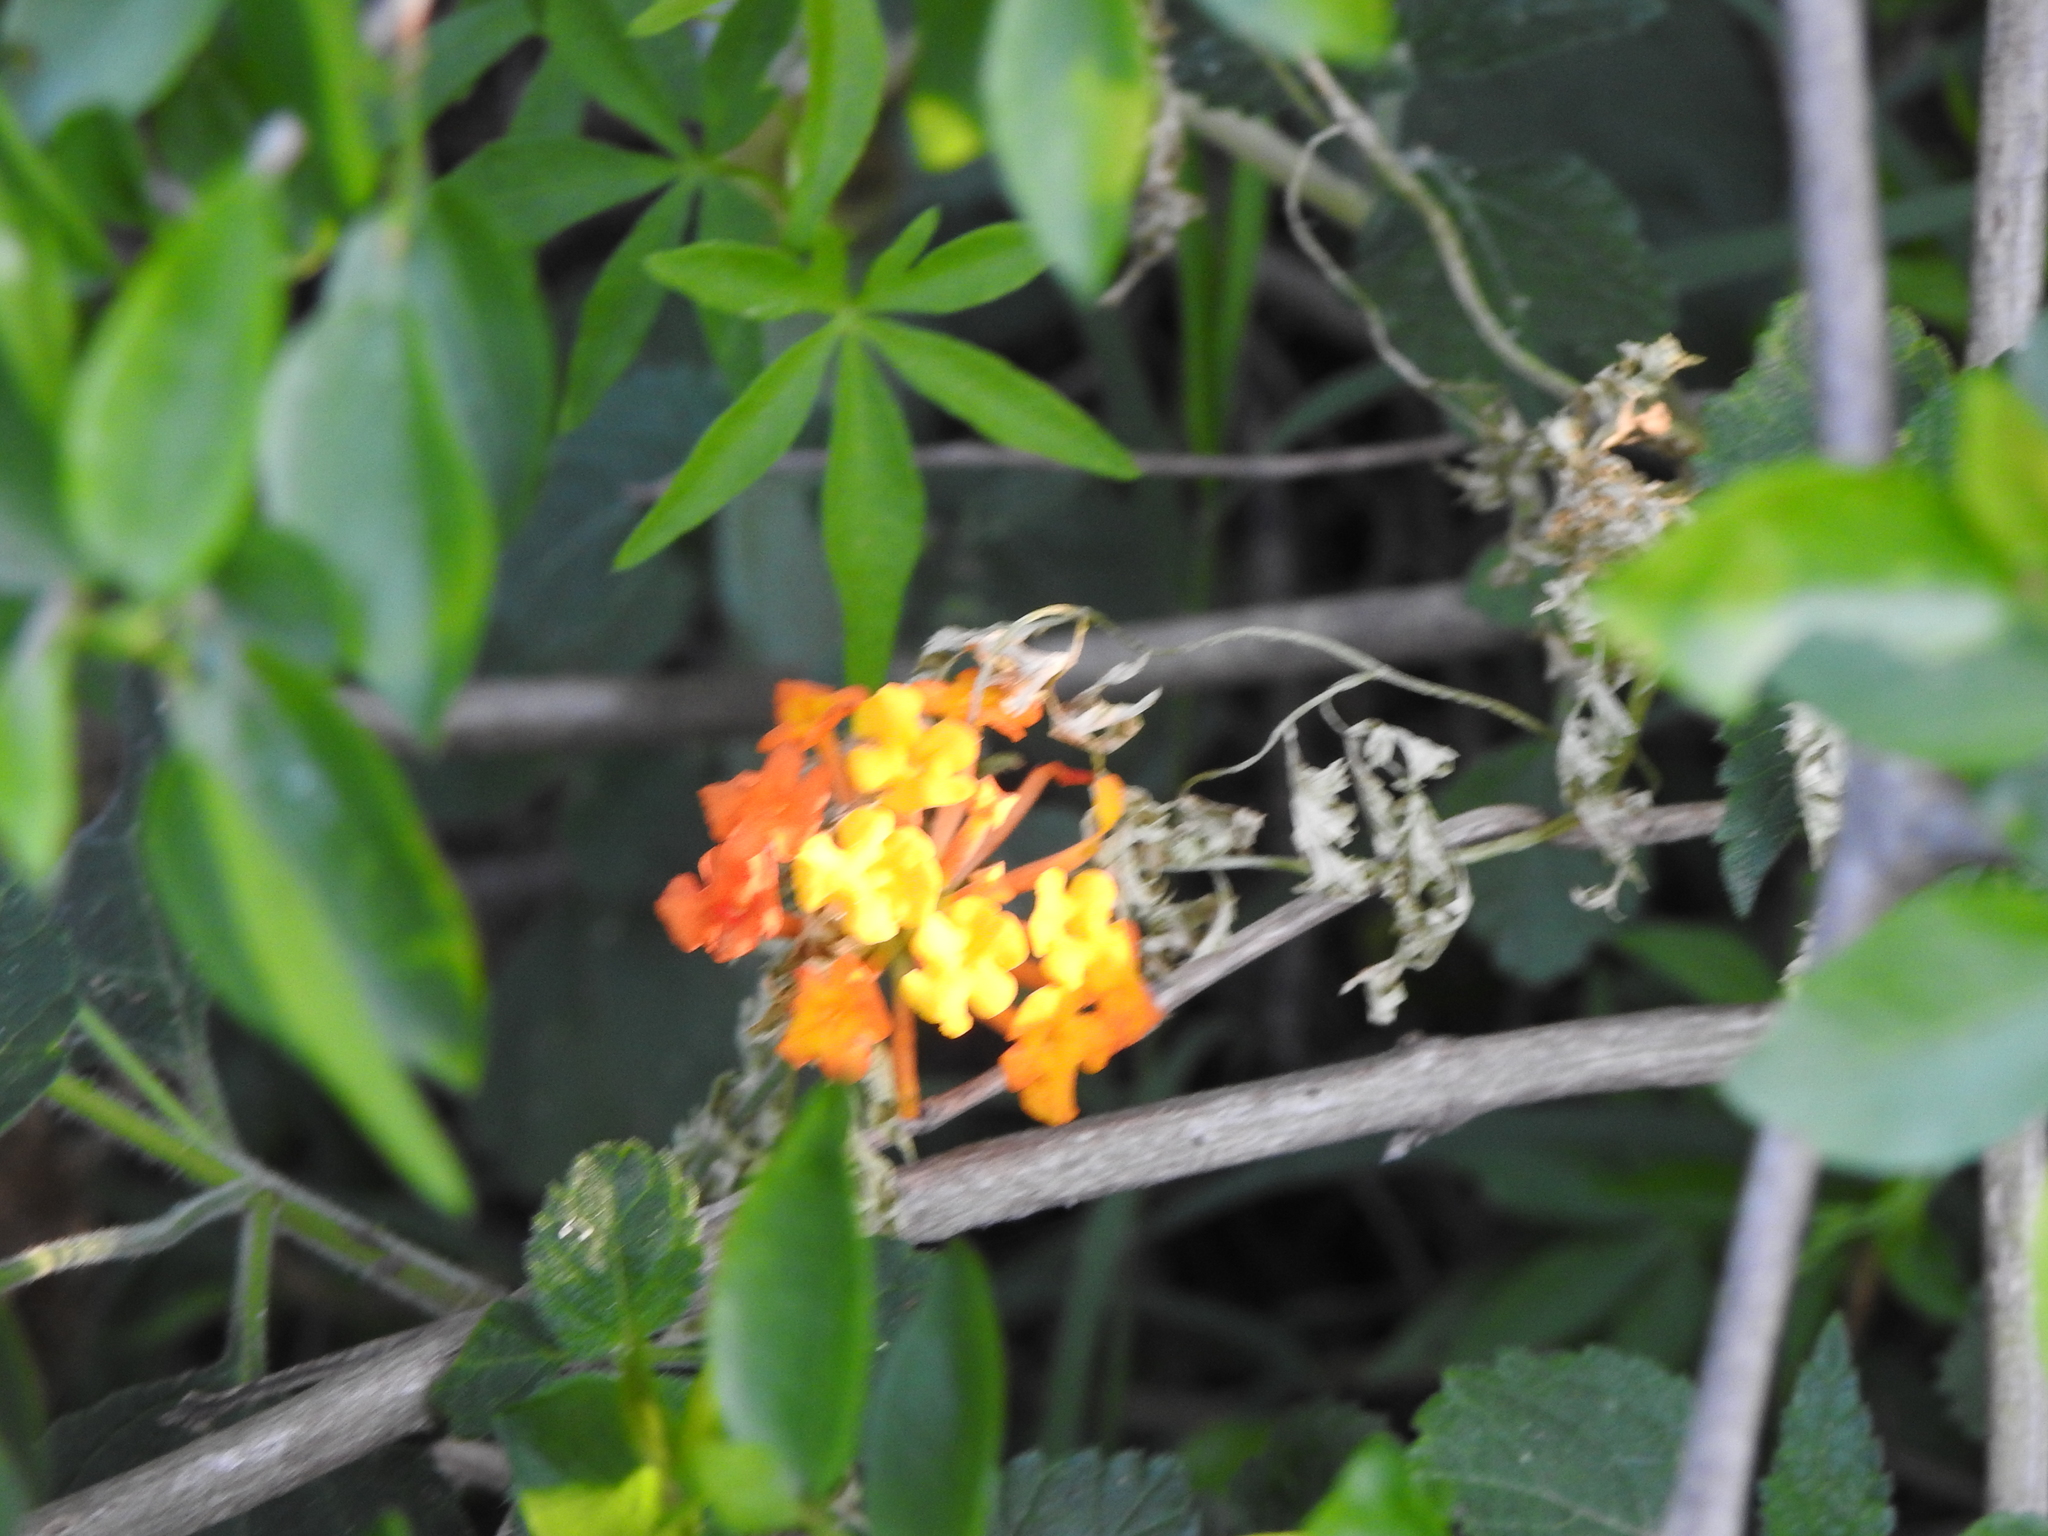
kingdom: Plantae
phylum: Tracheophyta
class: Magnoliopsida
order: Lamiales
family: Verbenaceae
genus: Lantana
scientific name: Lantana camara
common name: Lantana
